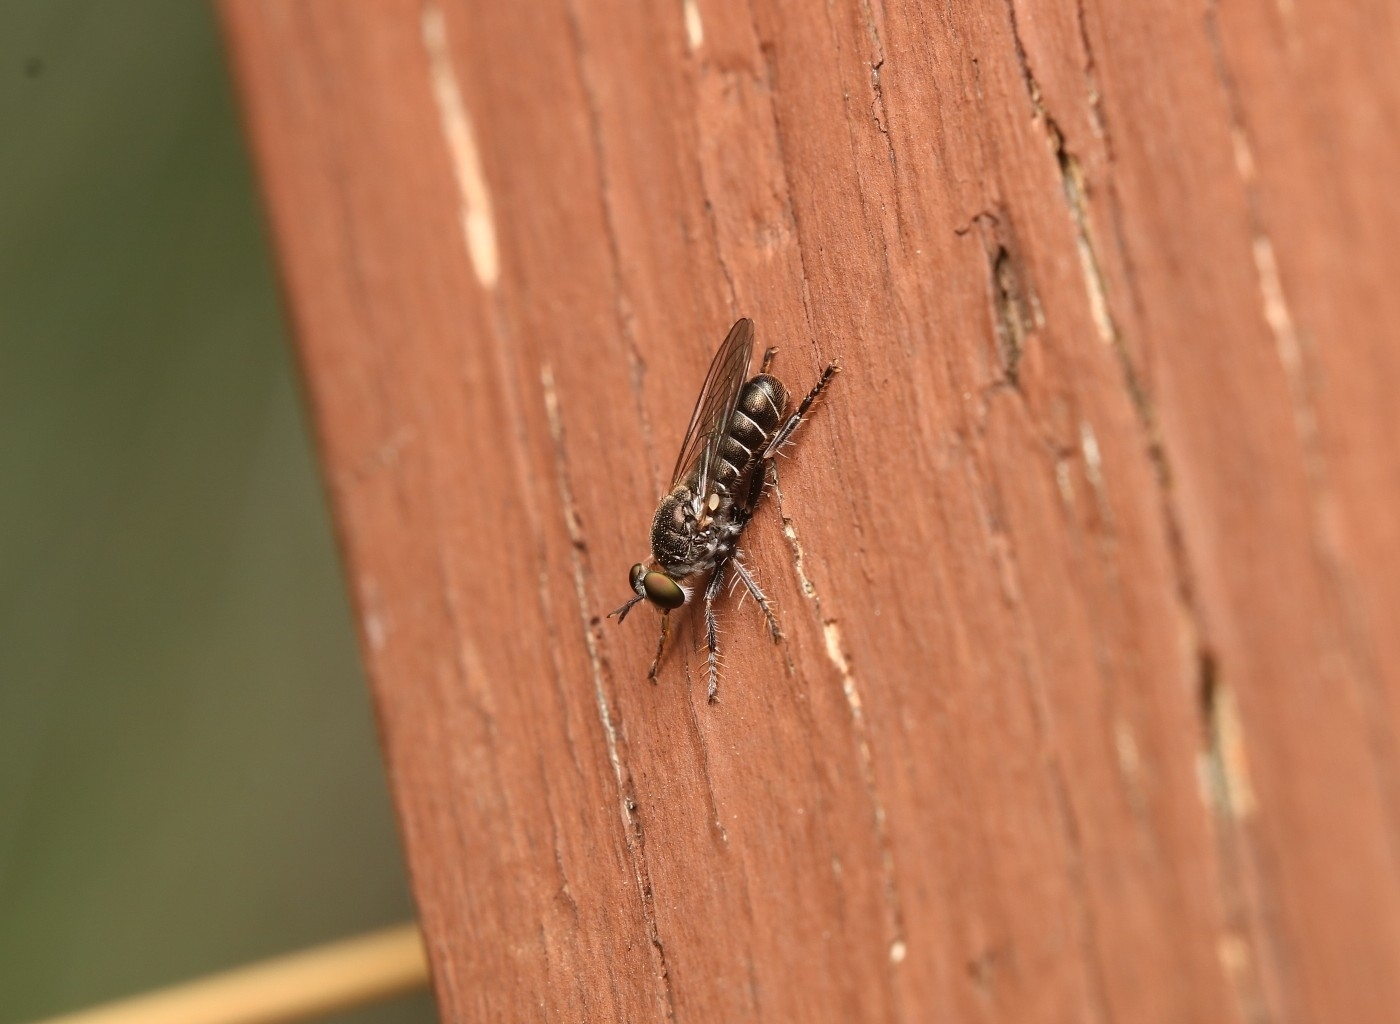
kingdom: Animalia
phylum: Arthropoda
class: Insecta
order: Diptera
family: Asilidae
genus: Atomosia
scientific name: Atomosia puella
